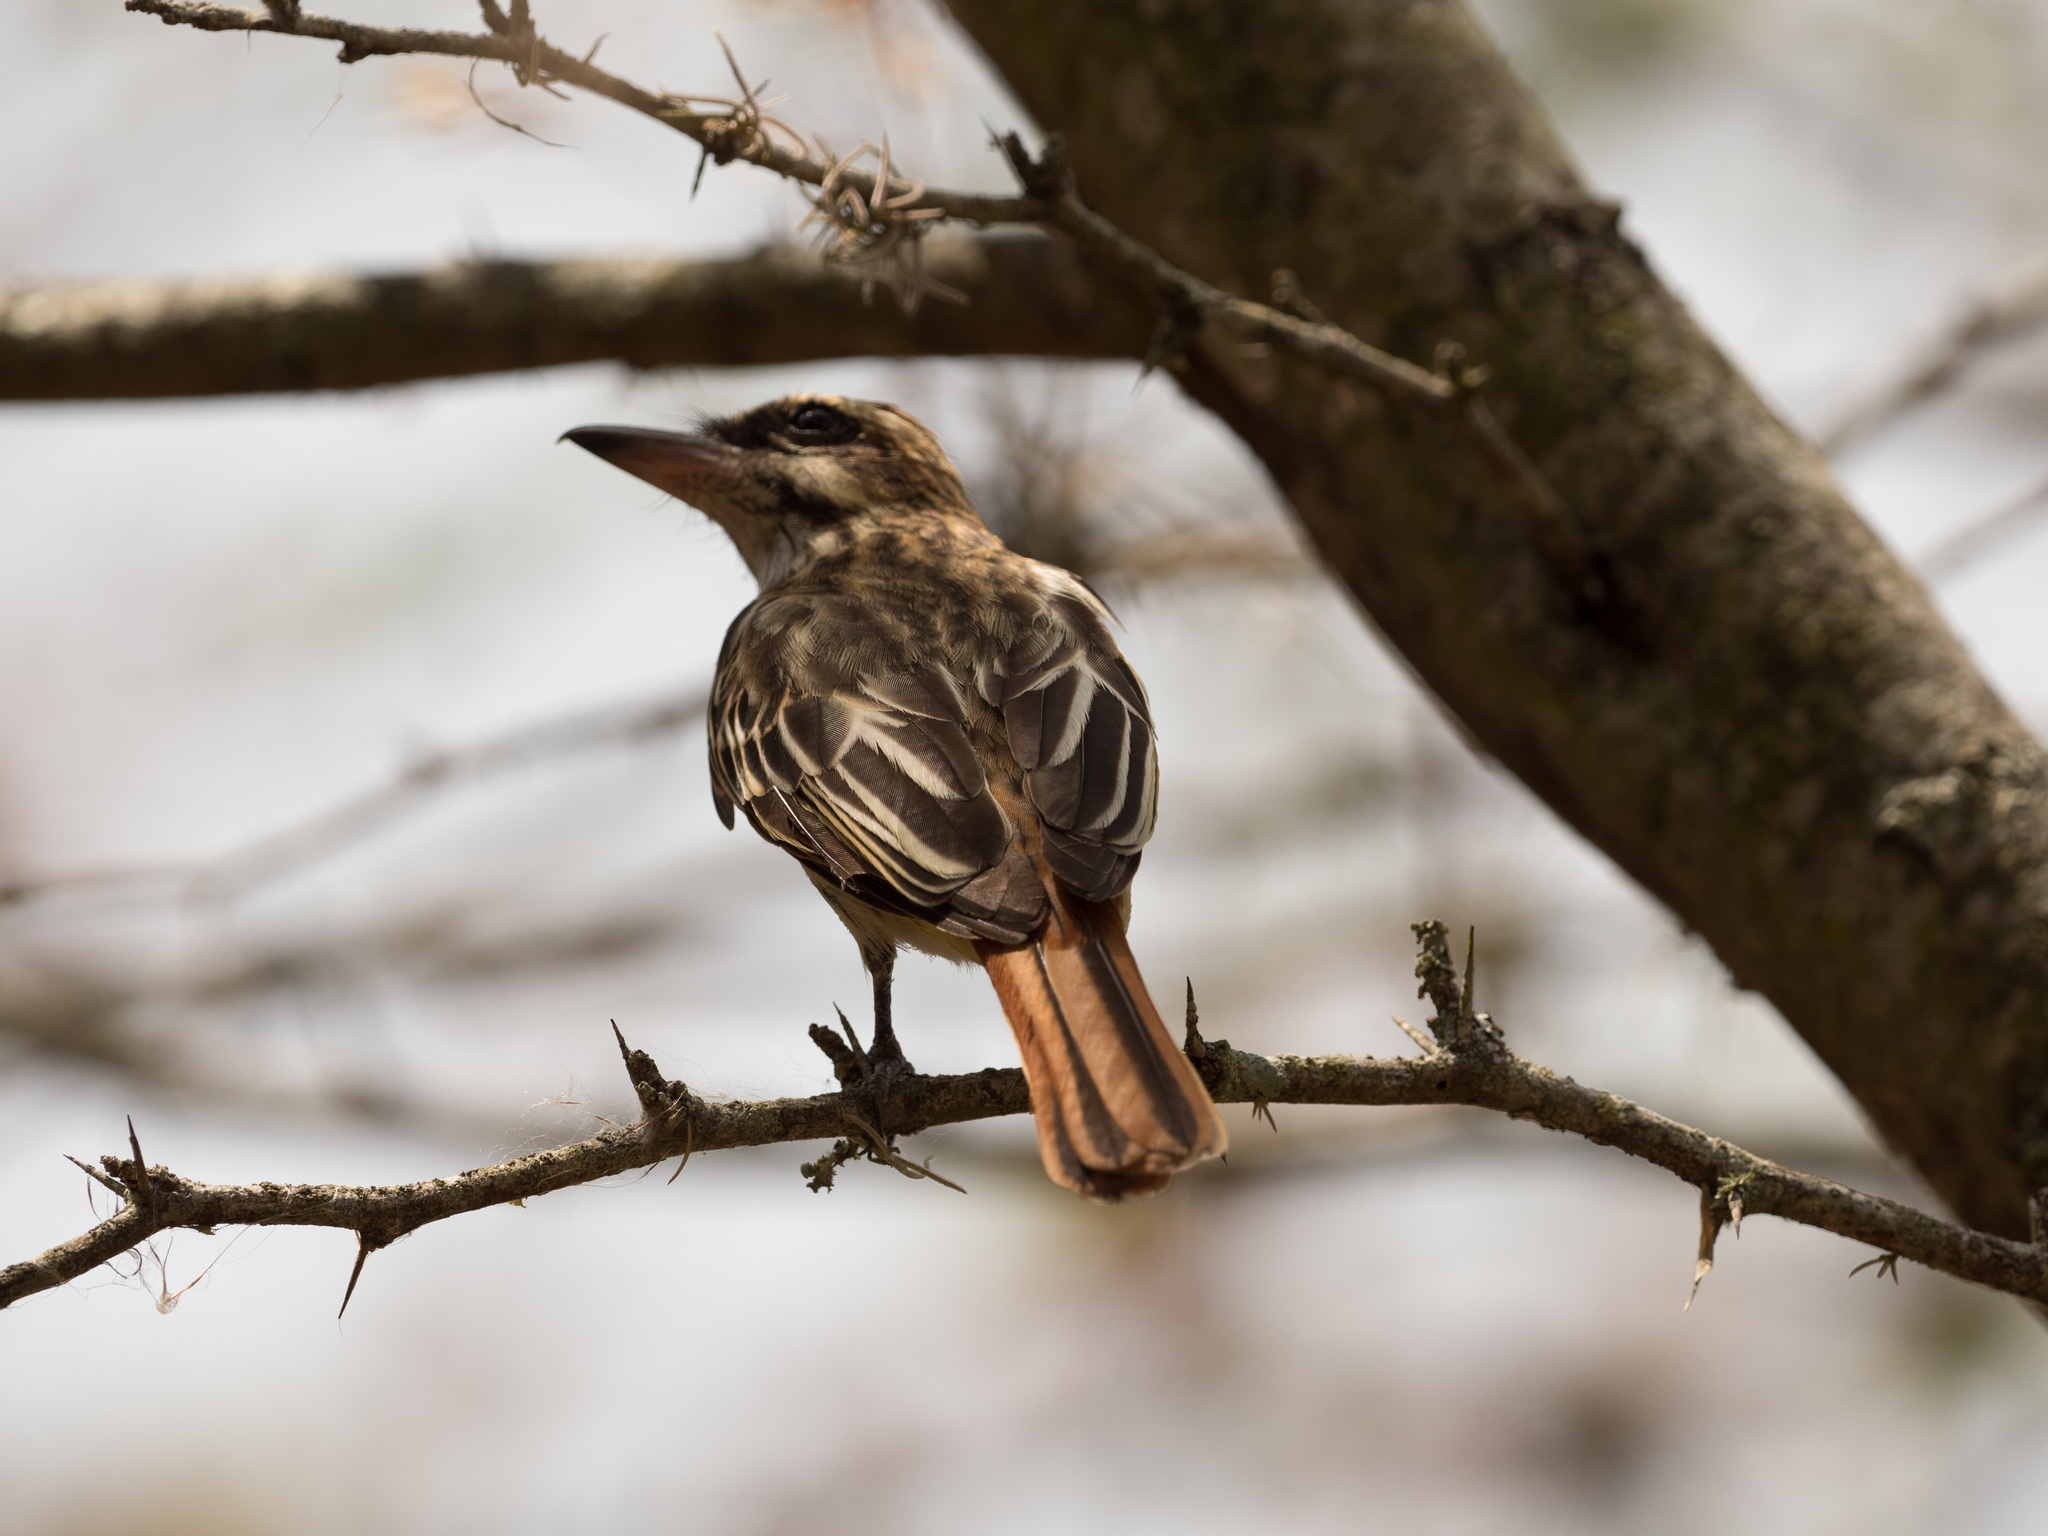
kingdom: Animalia
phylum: Chordata
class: Aves
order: Passeriformes
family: Tyrannidae
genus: Myiodynastes
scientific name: Myiodynastes maculatus
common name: Streaked flycatcher
